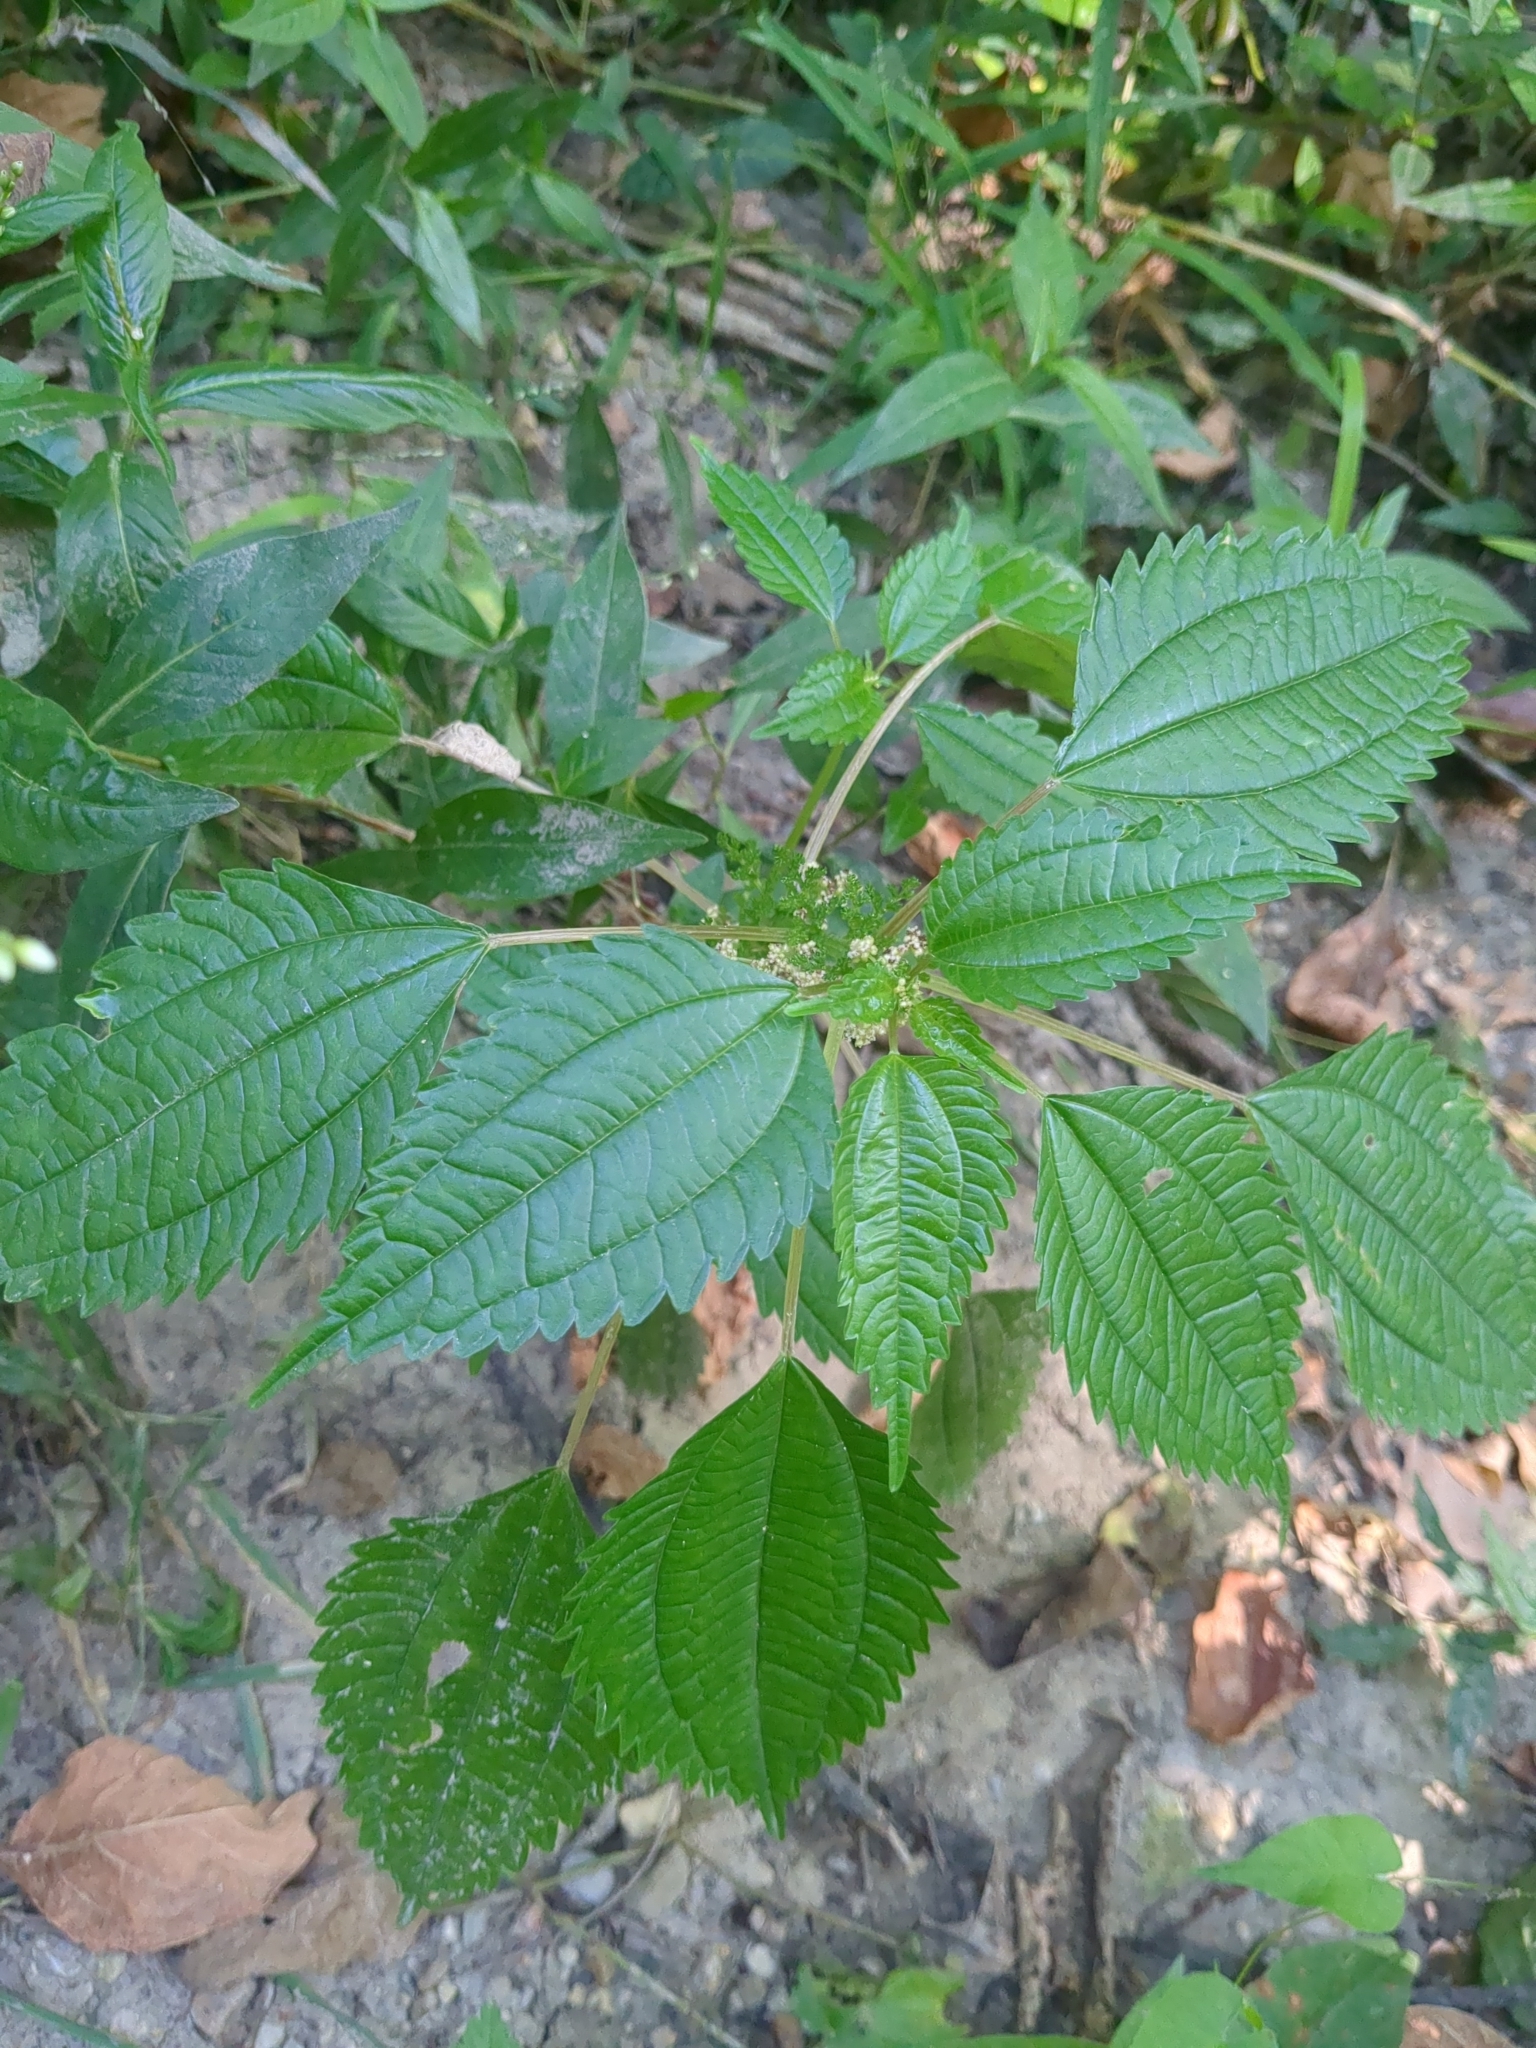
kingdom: Plantae
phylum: Tracheophyta
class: Magnoliopsida
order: Rosales
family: Urticaceae
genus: Pilea
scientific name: Pilea pumila
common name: Clearweed
